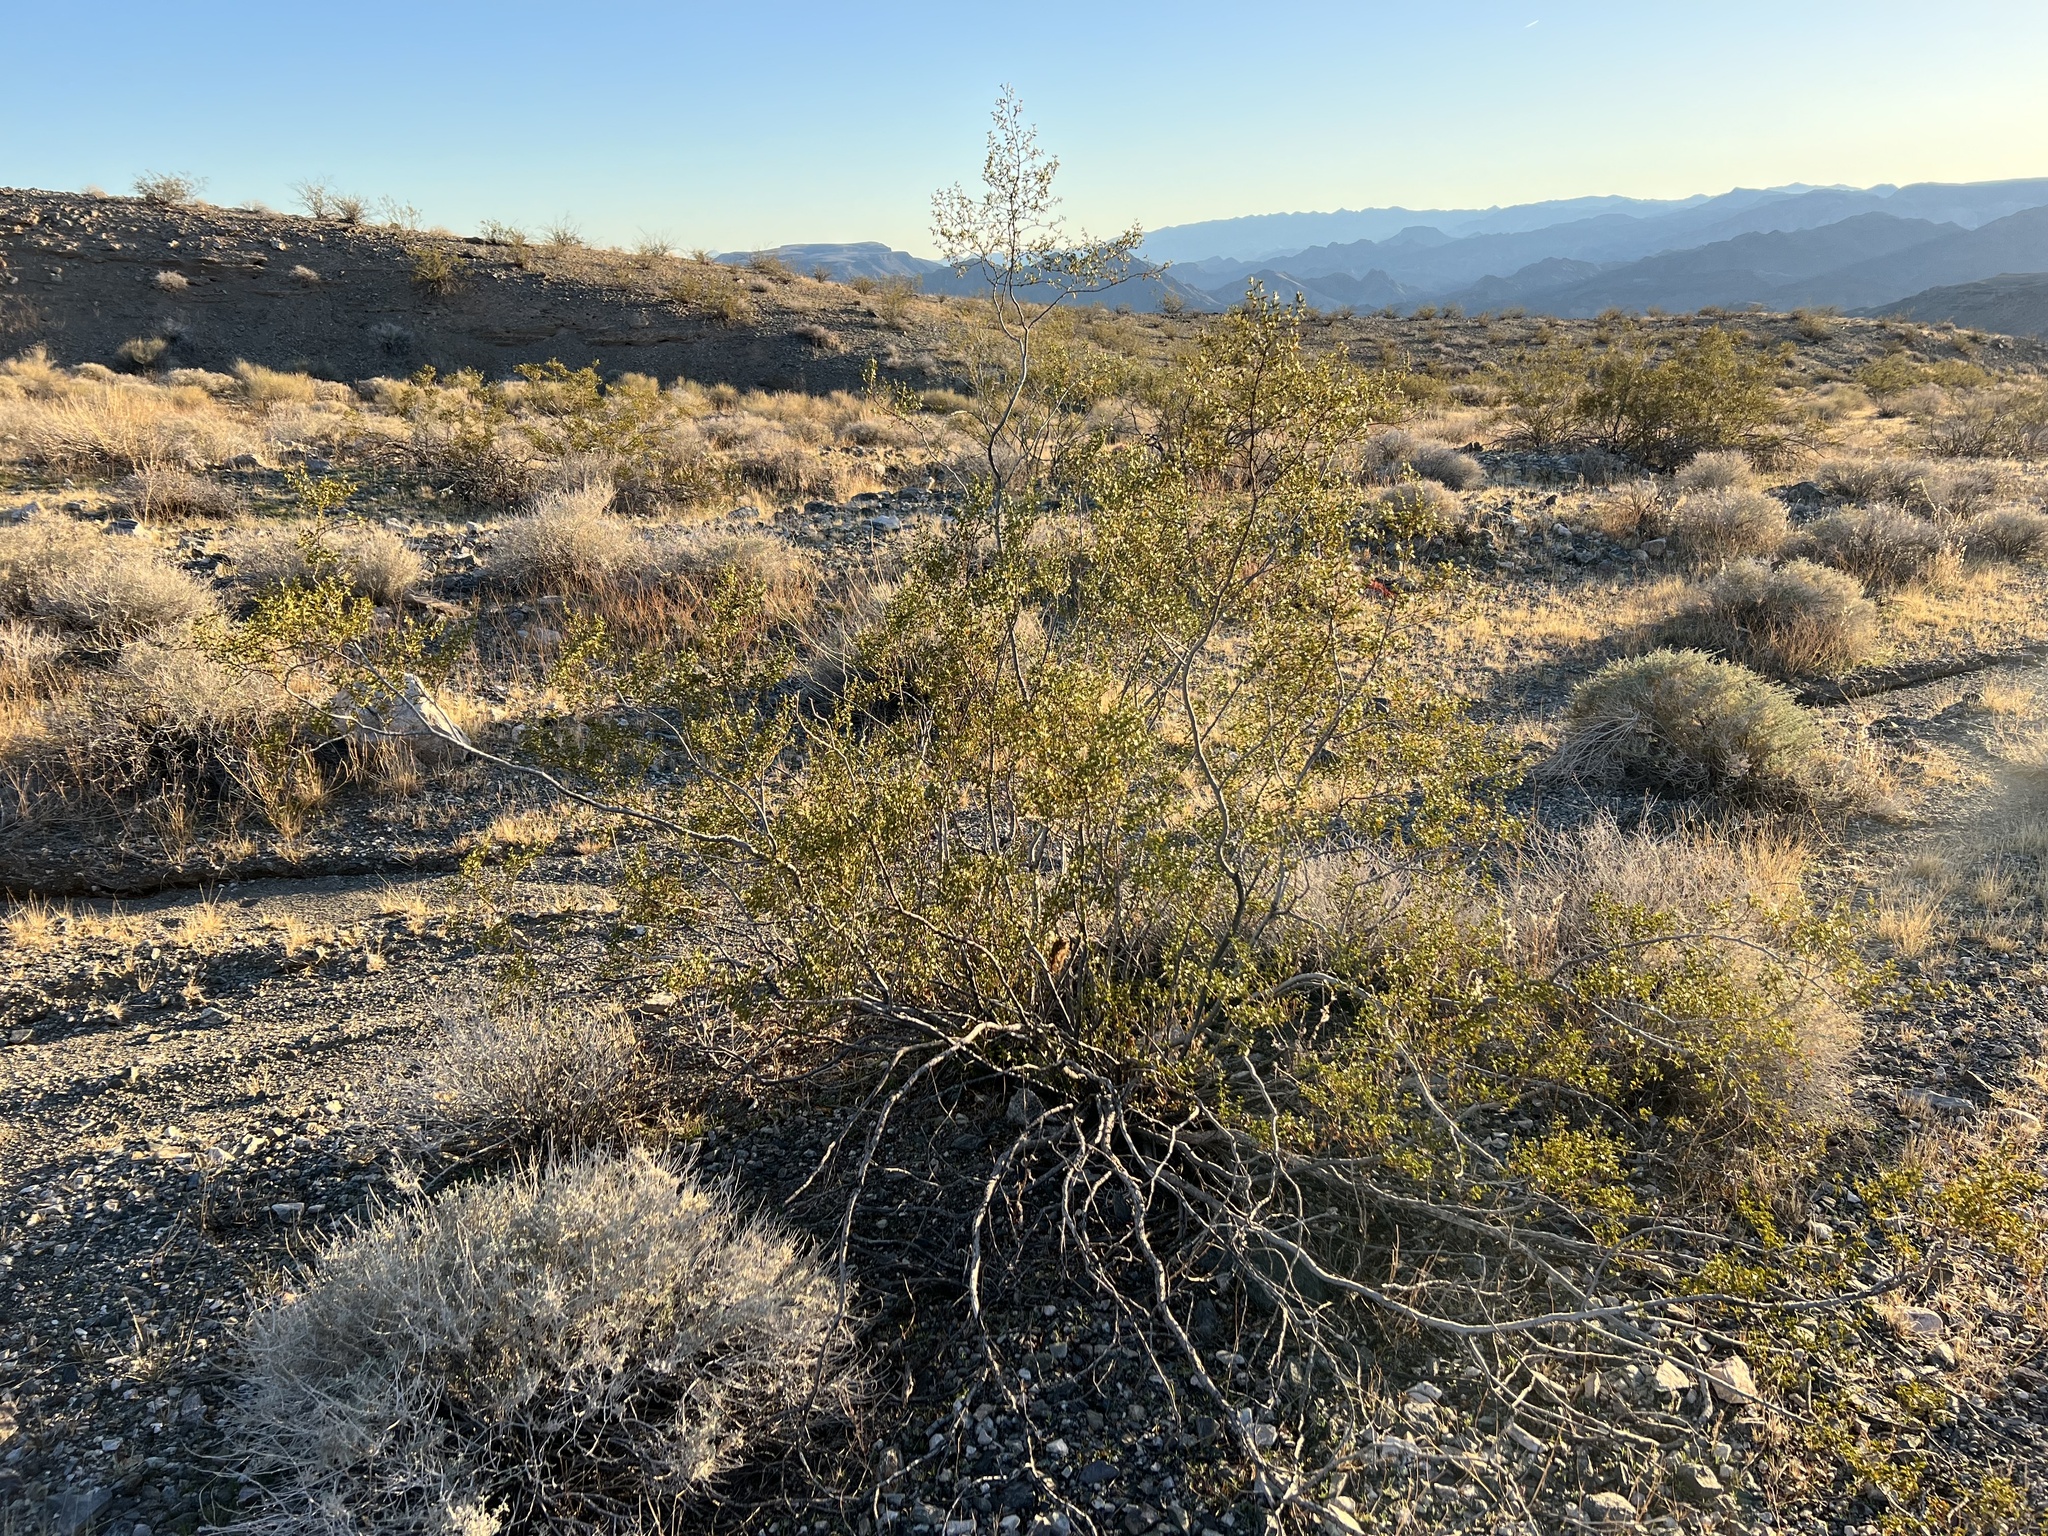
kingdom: Plantae
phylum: Tracheophyta
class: Magnoliopsida
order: Zygophyllales
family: Zygophyllaceae
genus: Larrea
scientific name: Larrea tridentata
